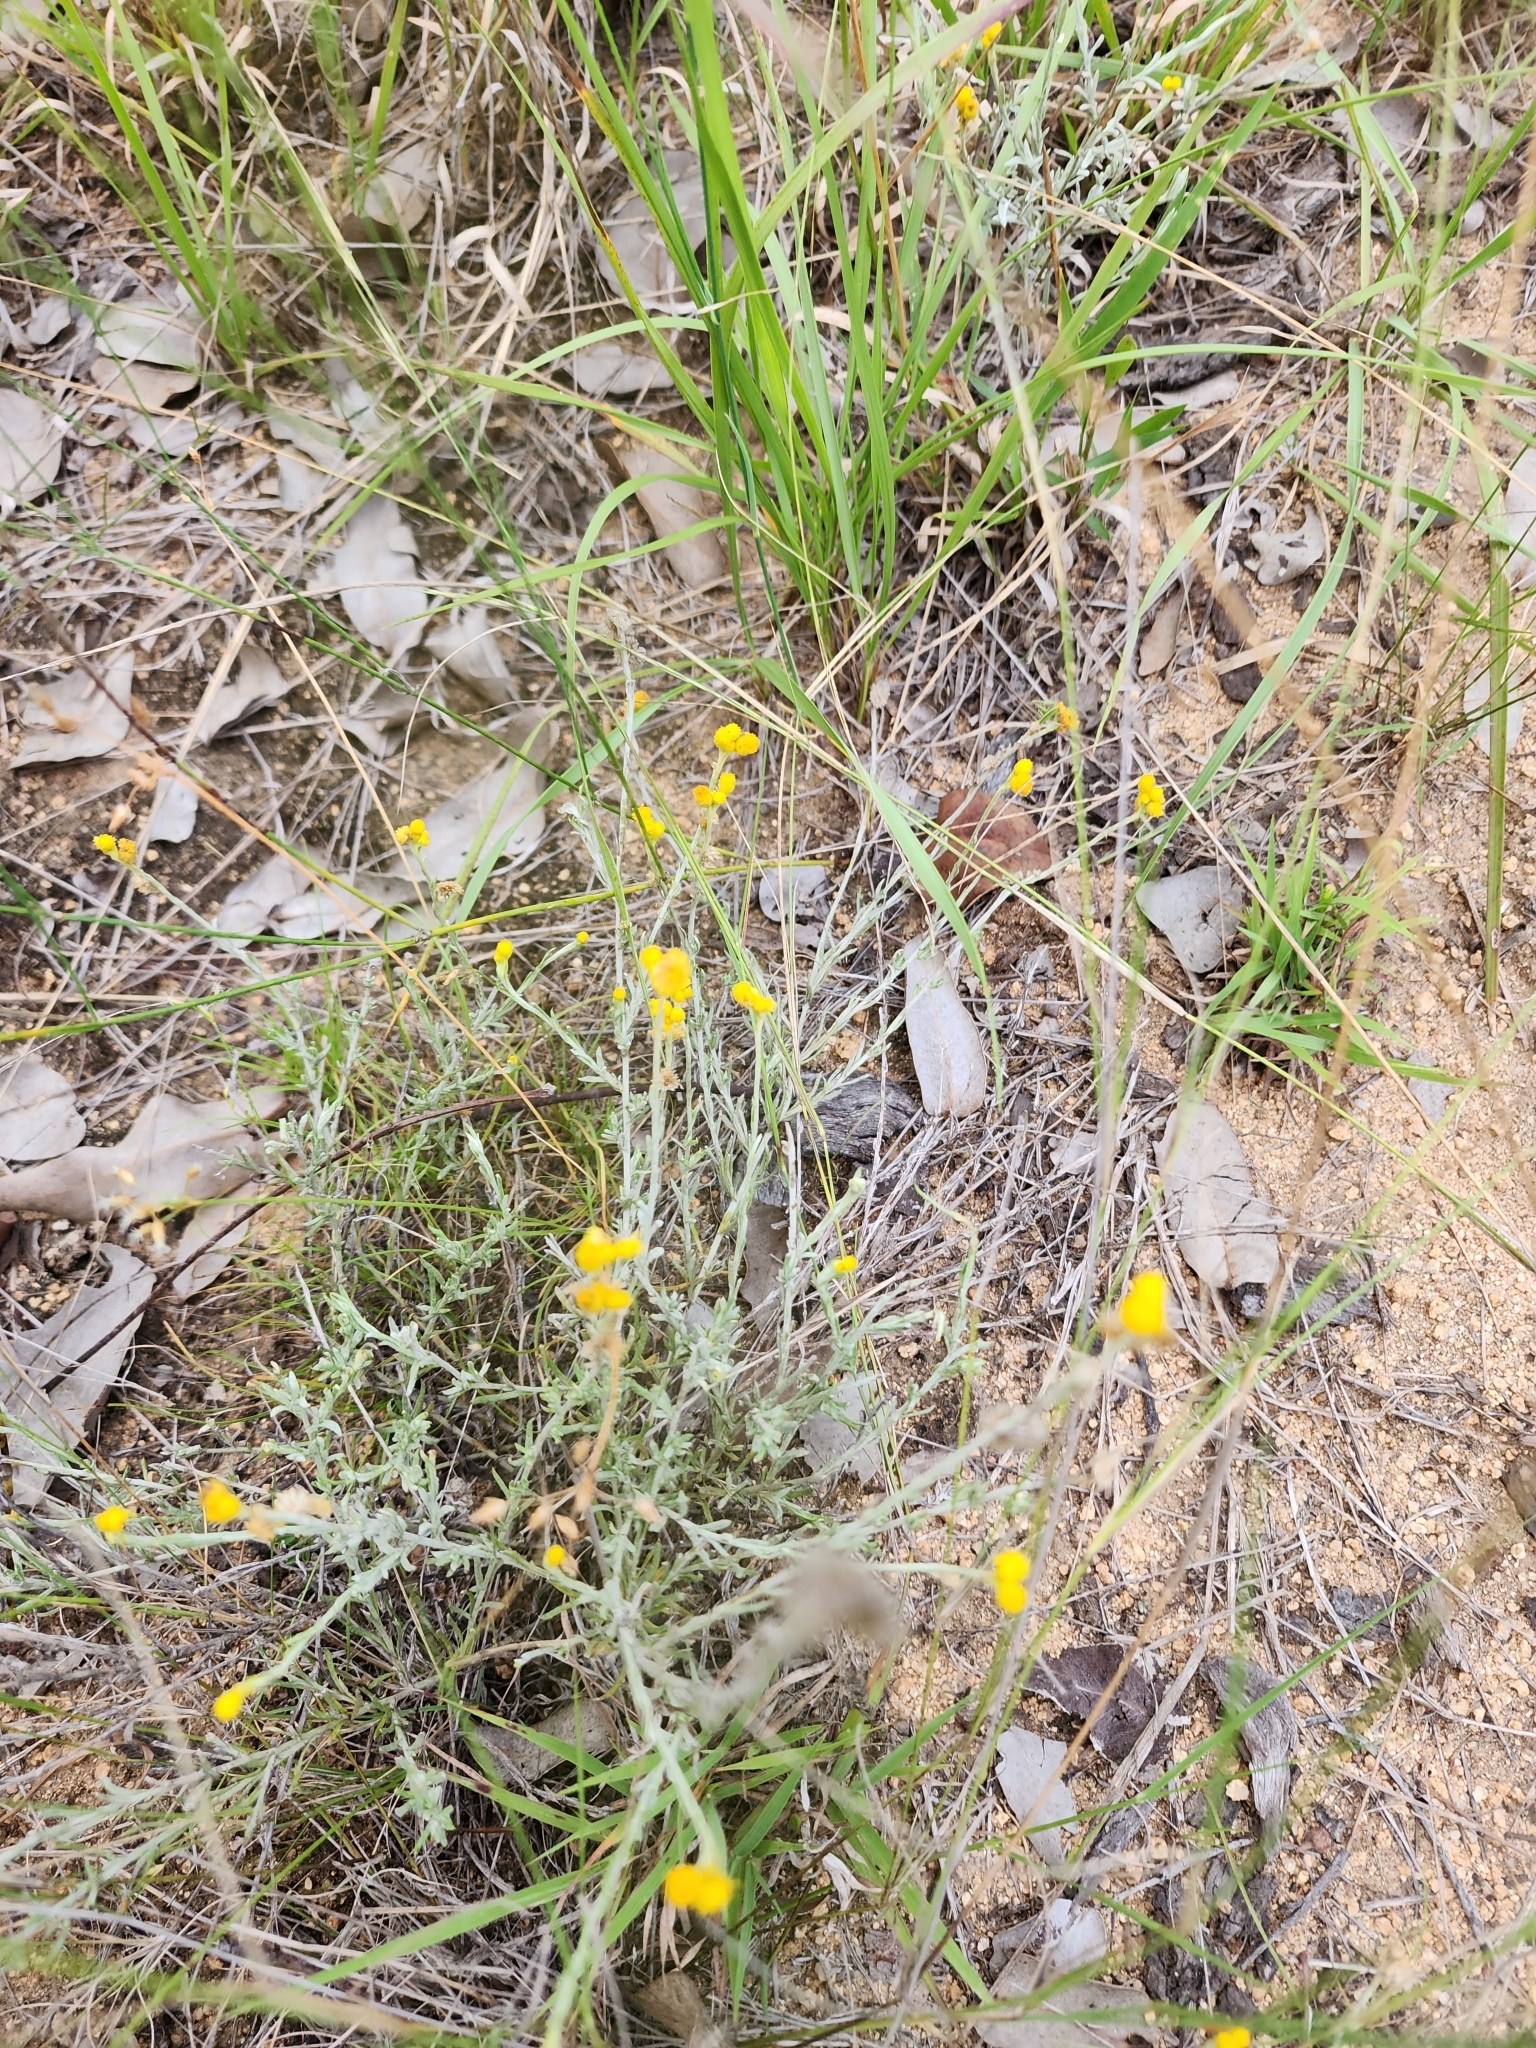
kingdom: Plantae
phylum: Tracheophyta
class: Magnoliopsida
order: Asterales
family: Asteraceae
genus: Chrysocephalum
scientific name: Chrysocephalum apiculatum
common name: Common everlasting
